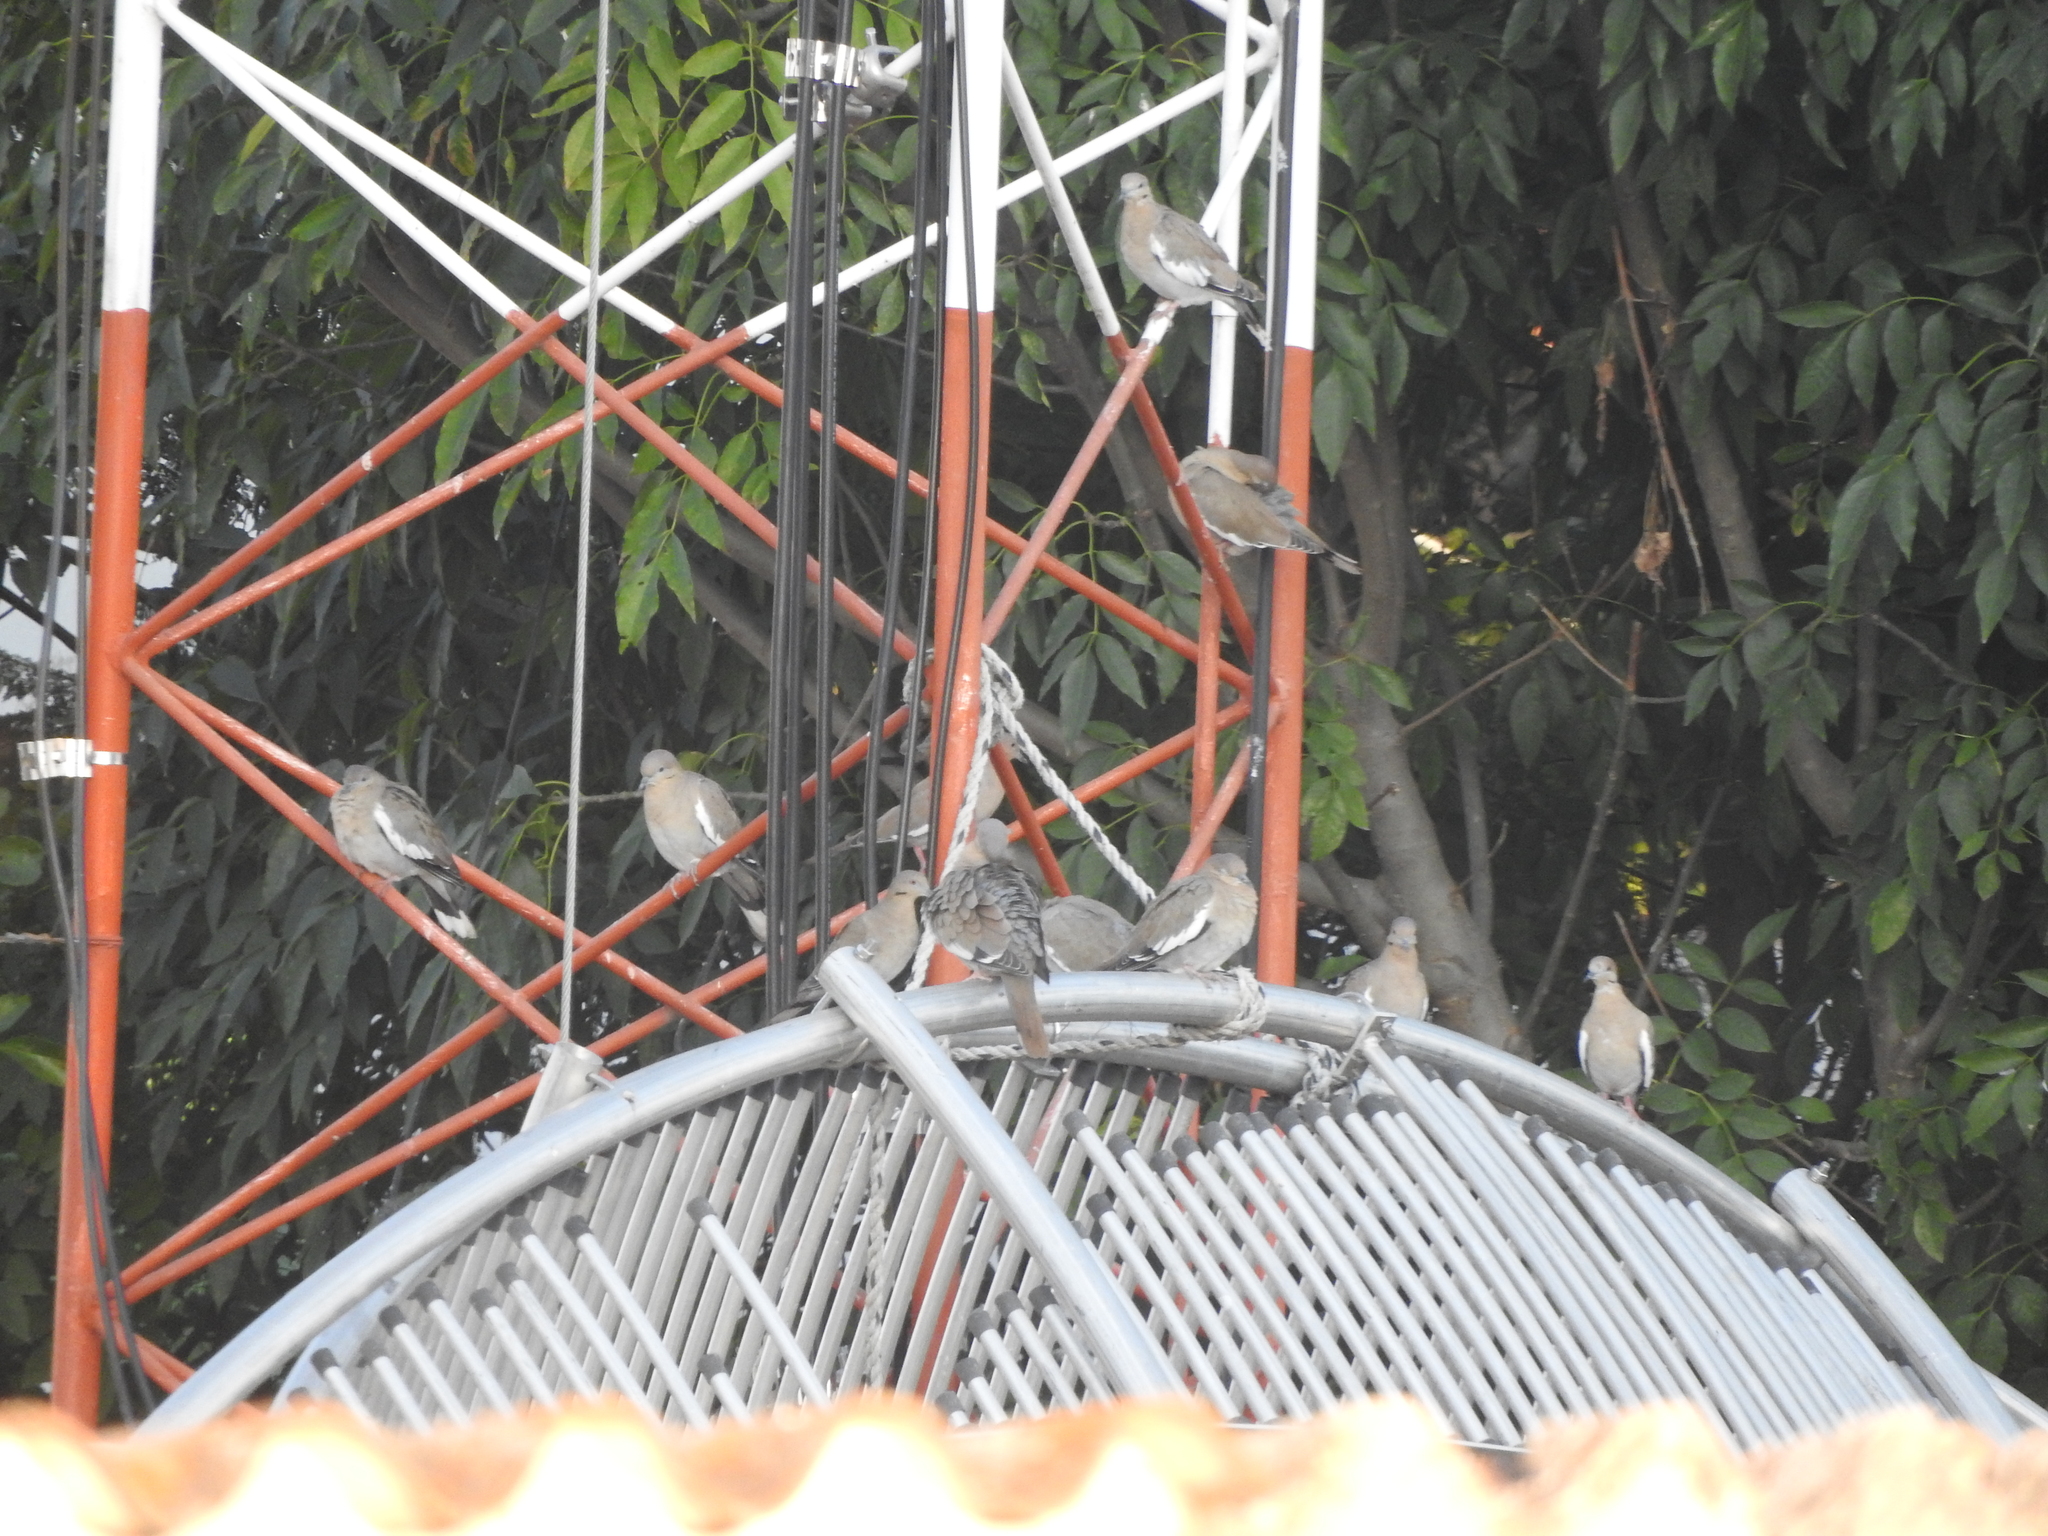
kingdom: Animalia
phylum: Chordata
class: Aves
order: Columbiformes
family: Columbidae
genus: Zenaida
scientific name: Zenaida asiatica
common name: White-winged dove
